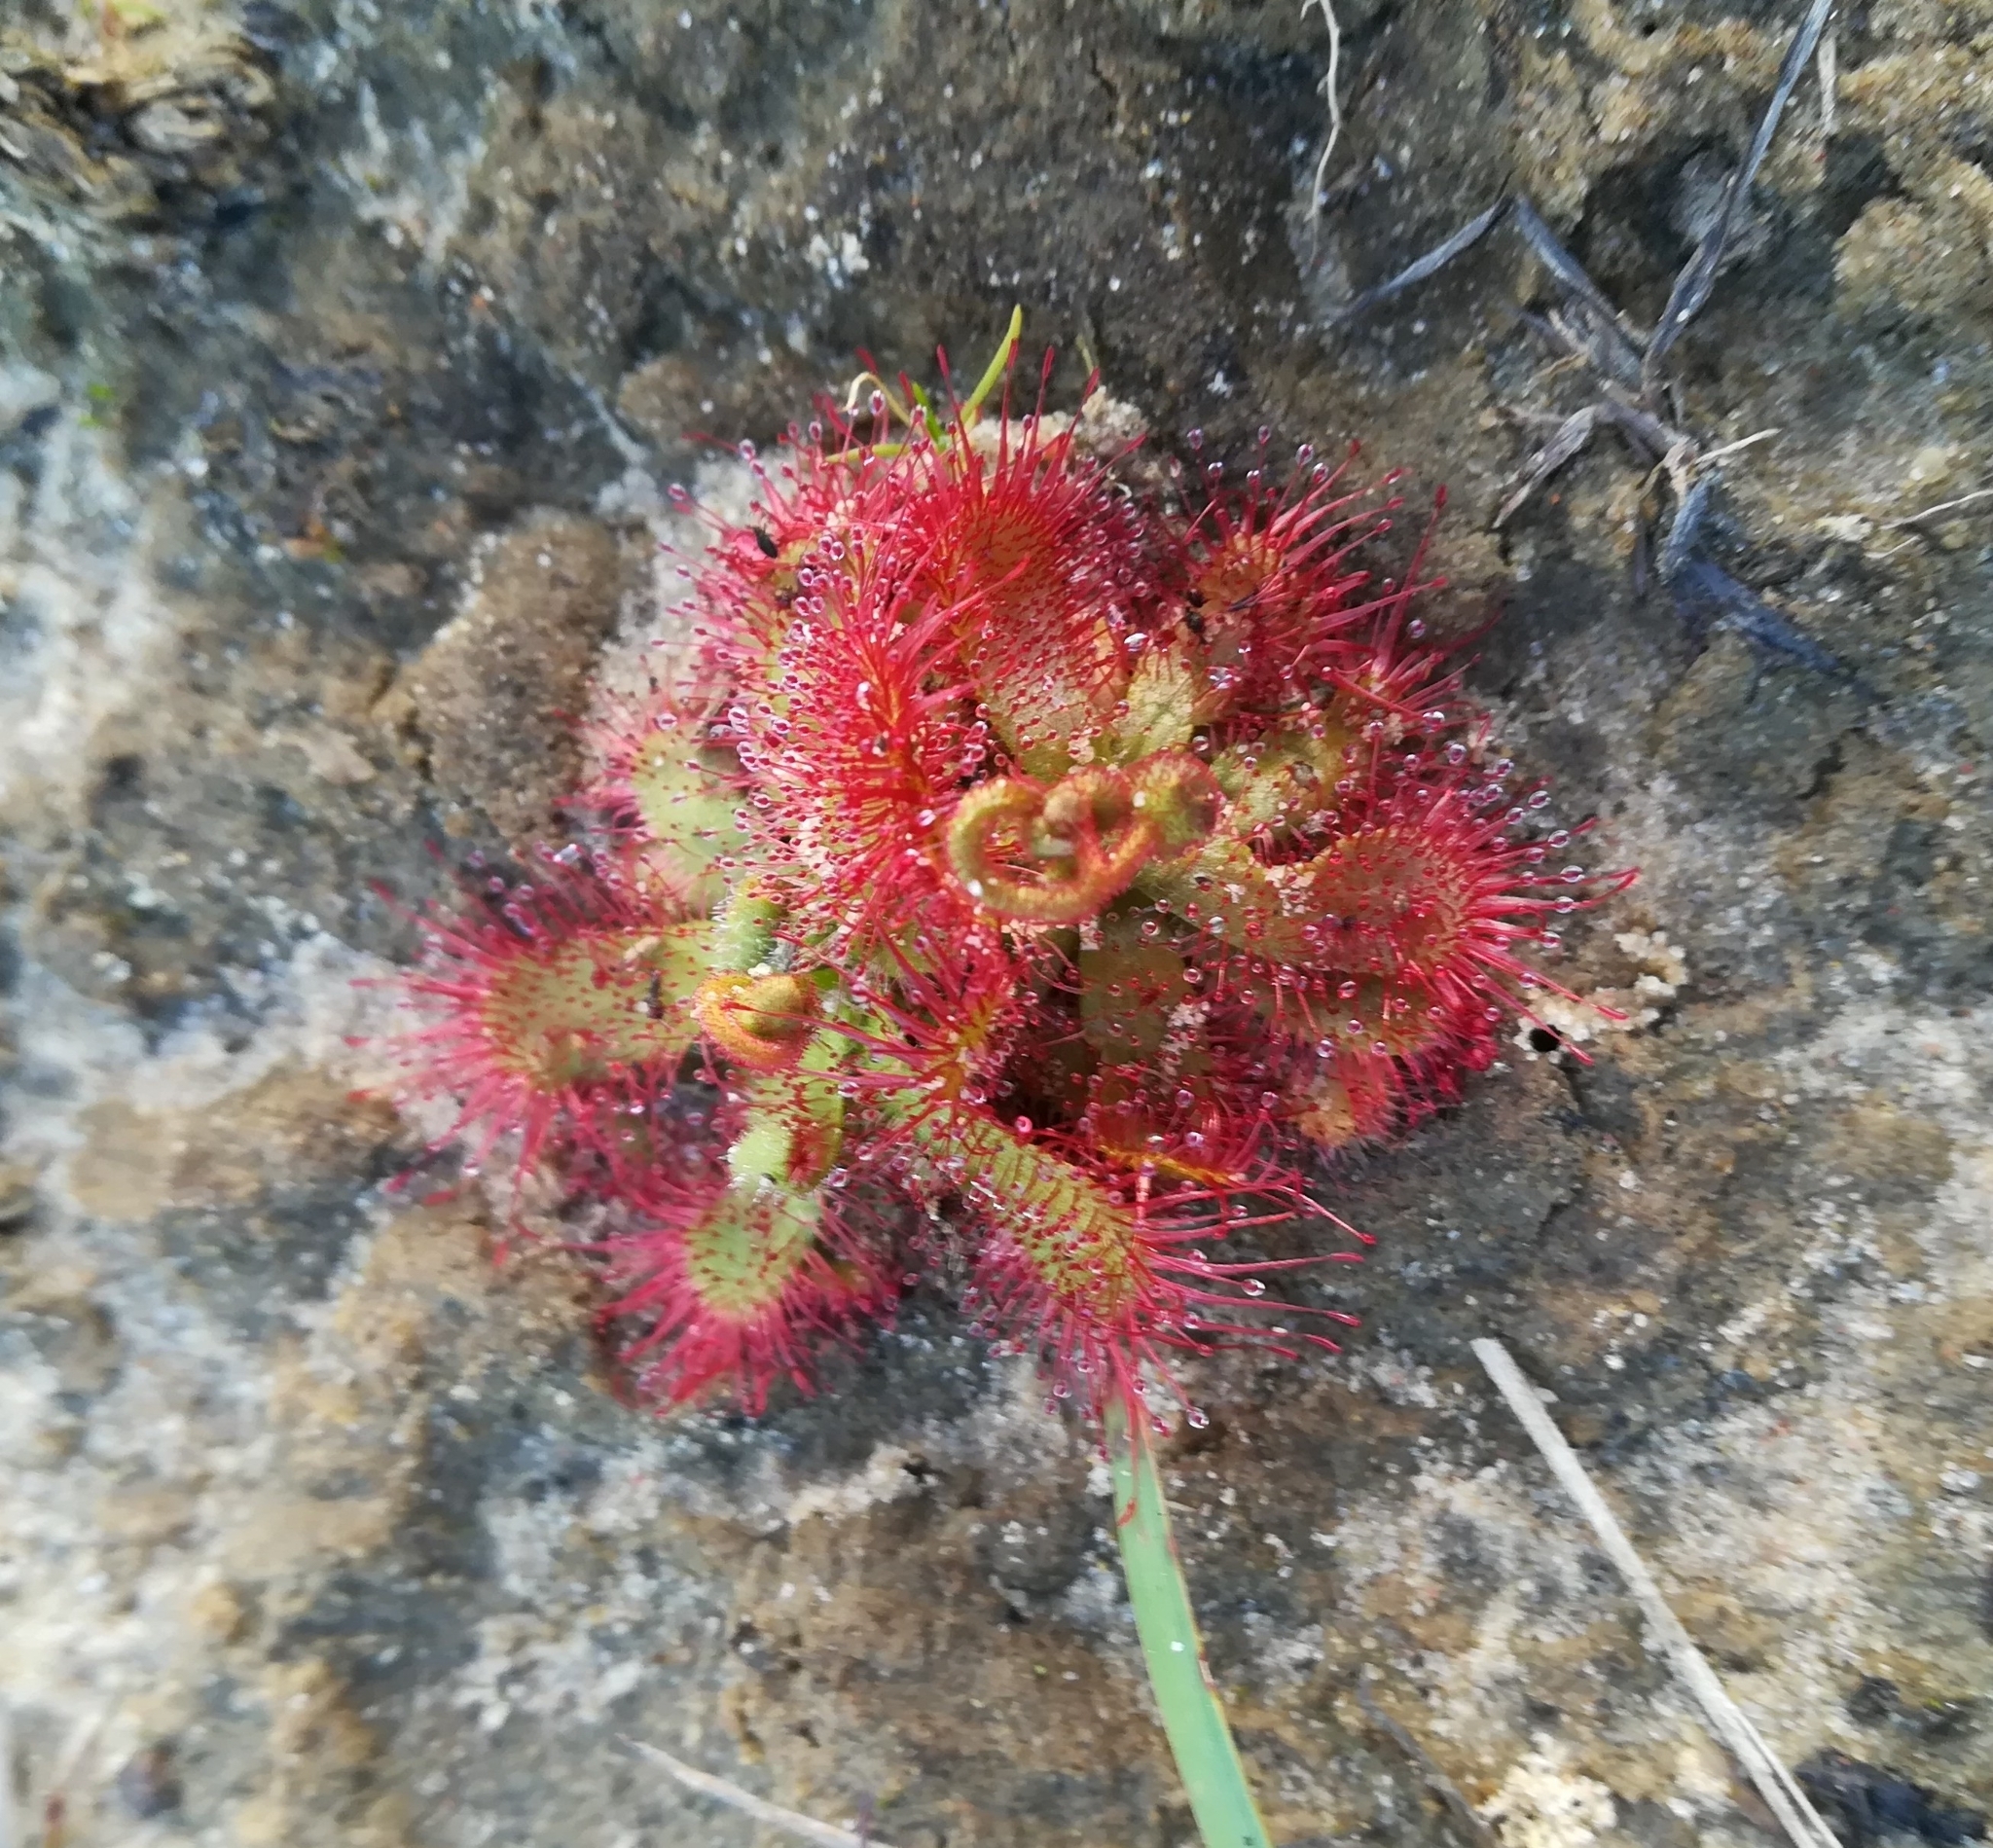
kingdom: Plantae
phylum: Tracheophyta
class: Magnoliopsida
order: Caryophyllales
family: Droseraceae
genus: Drosera
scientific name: Drosera trinervia
